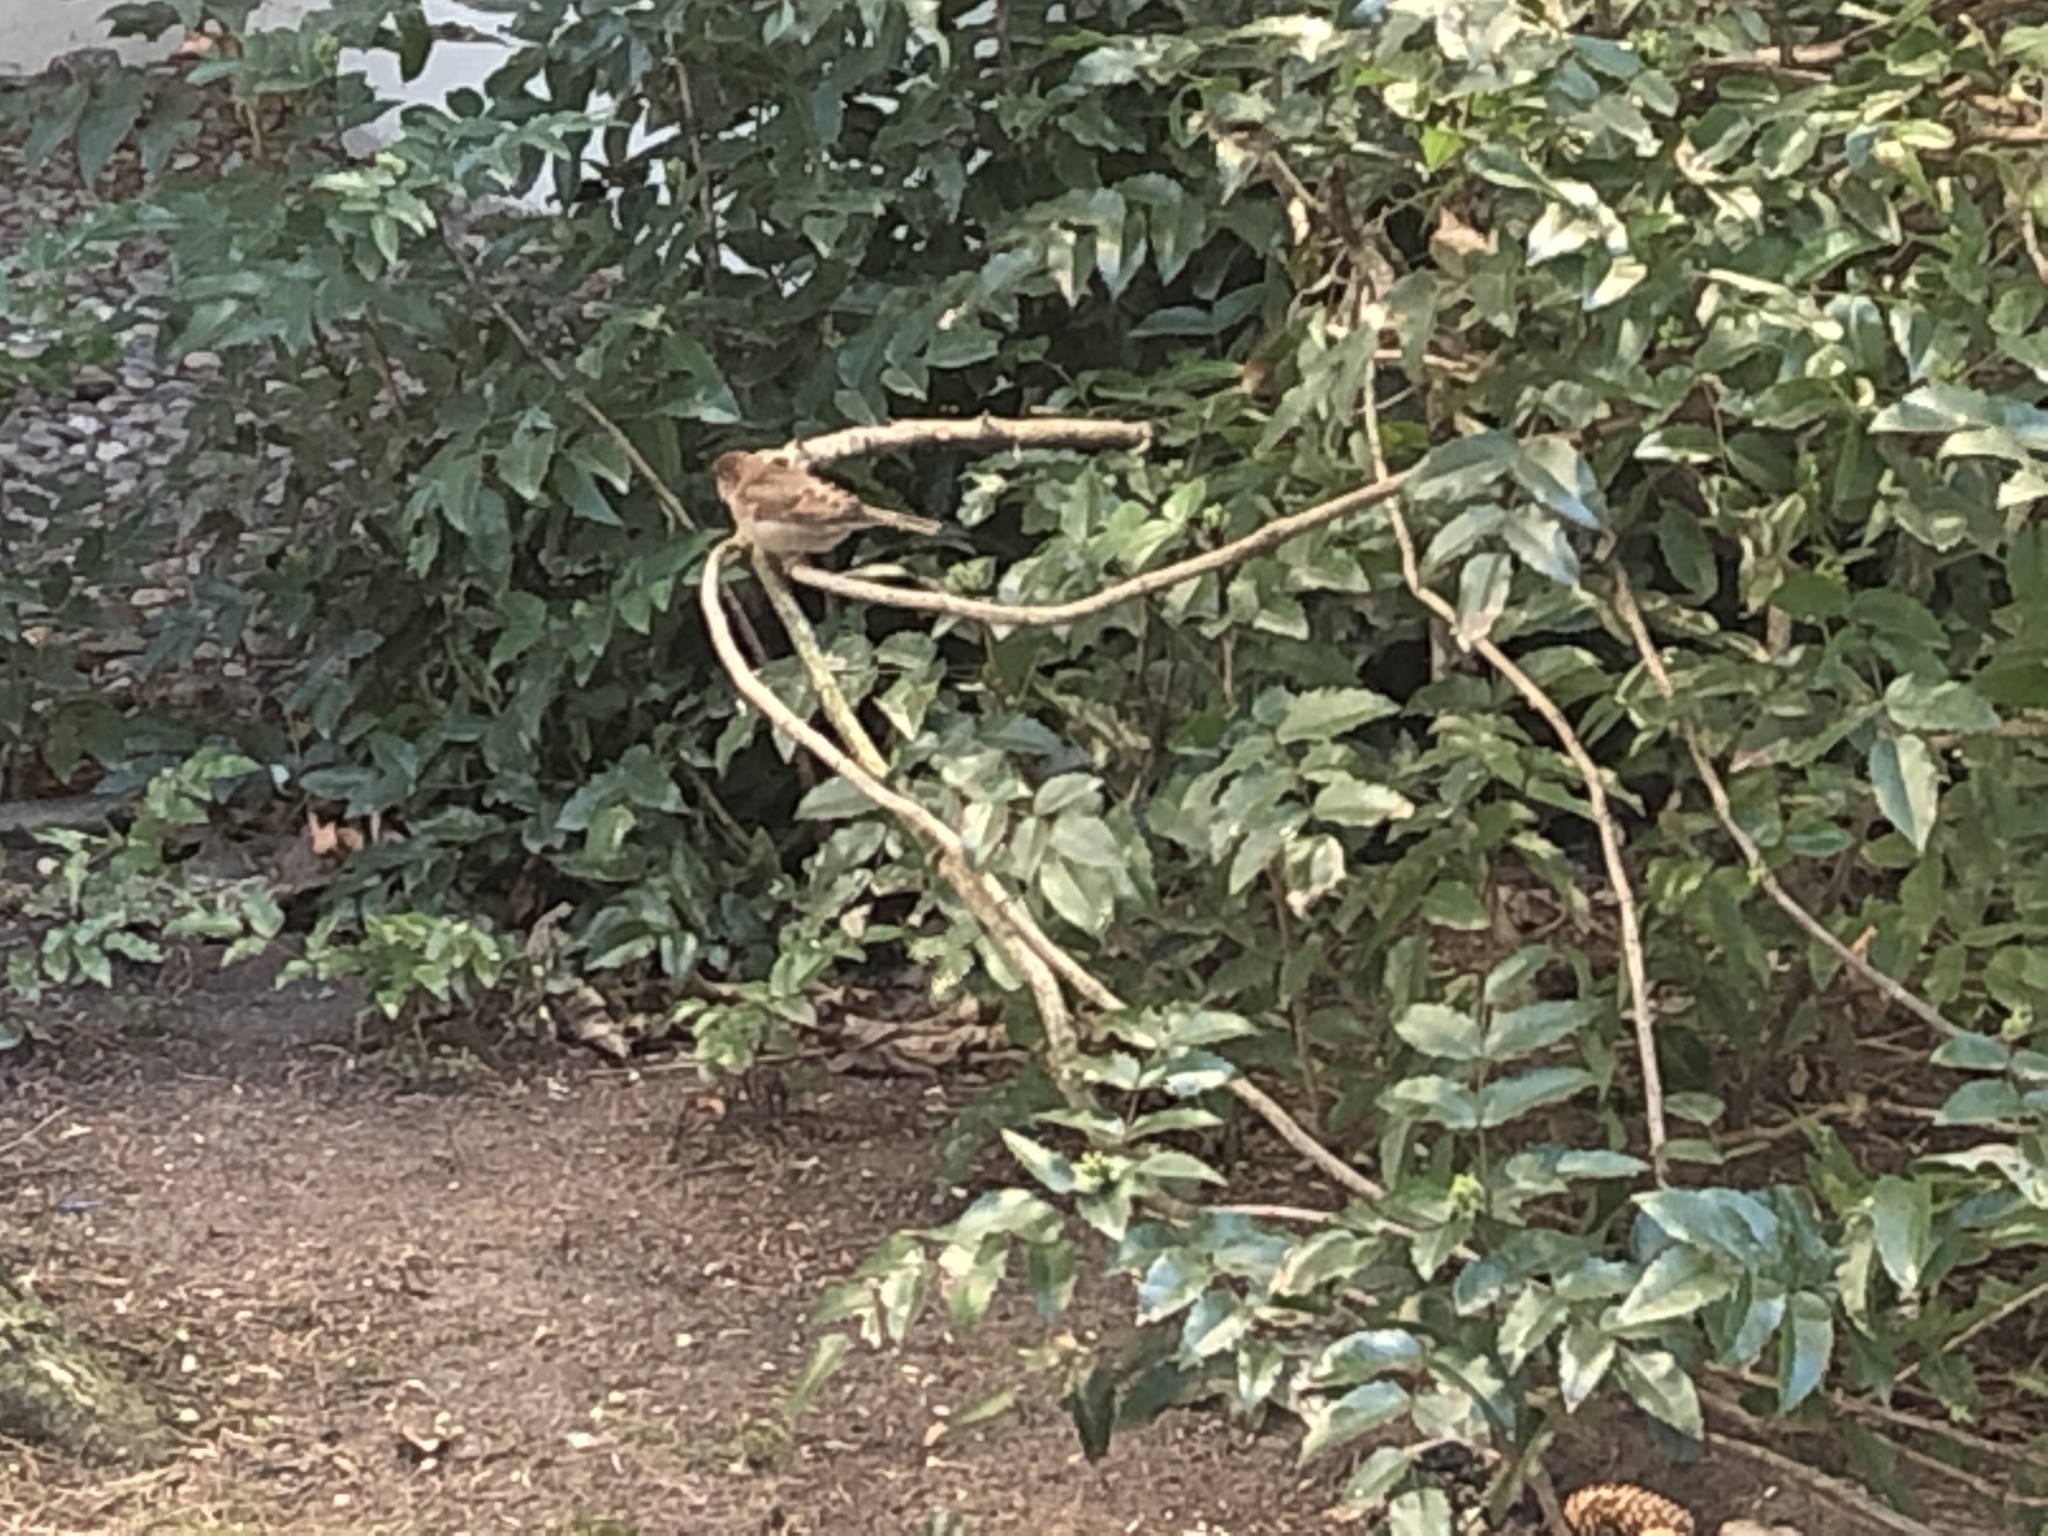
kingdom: Animalia
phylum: Chordata
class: Aves
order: Passeriformes
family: Passeridae
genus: Passer
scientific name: Passer domesticus
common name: House sparrow
